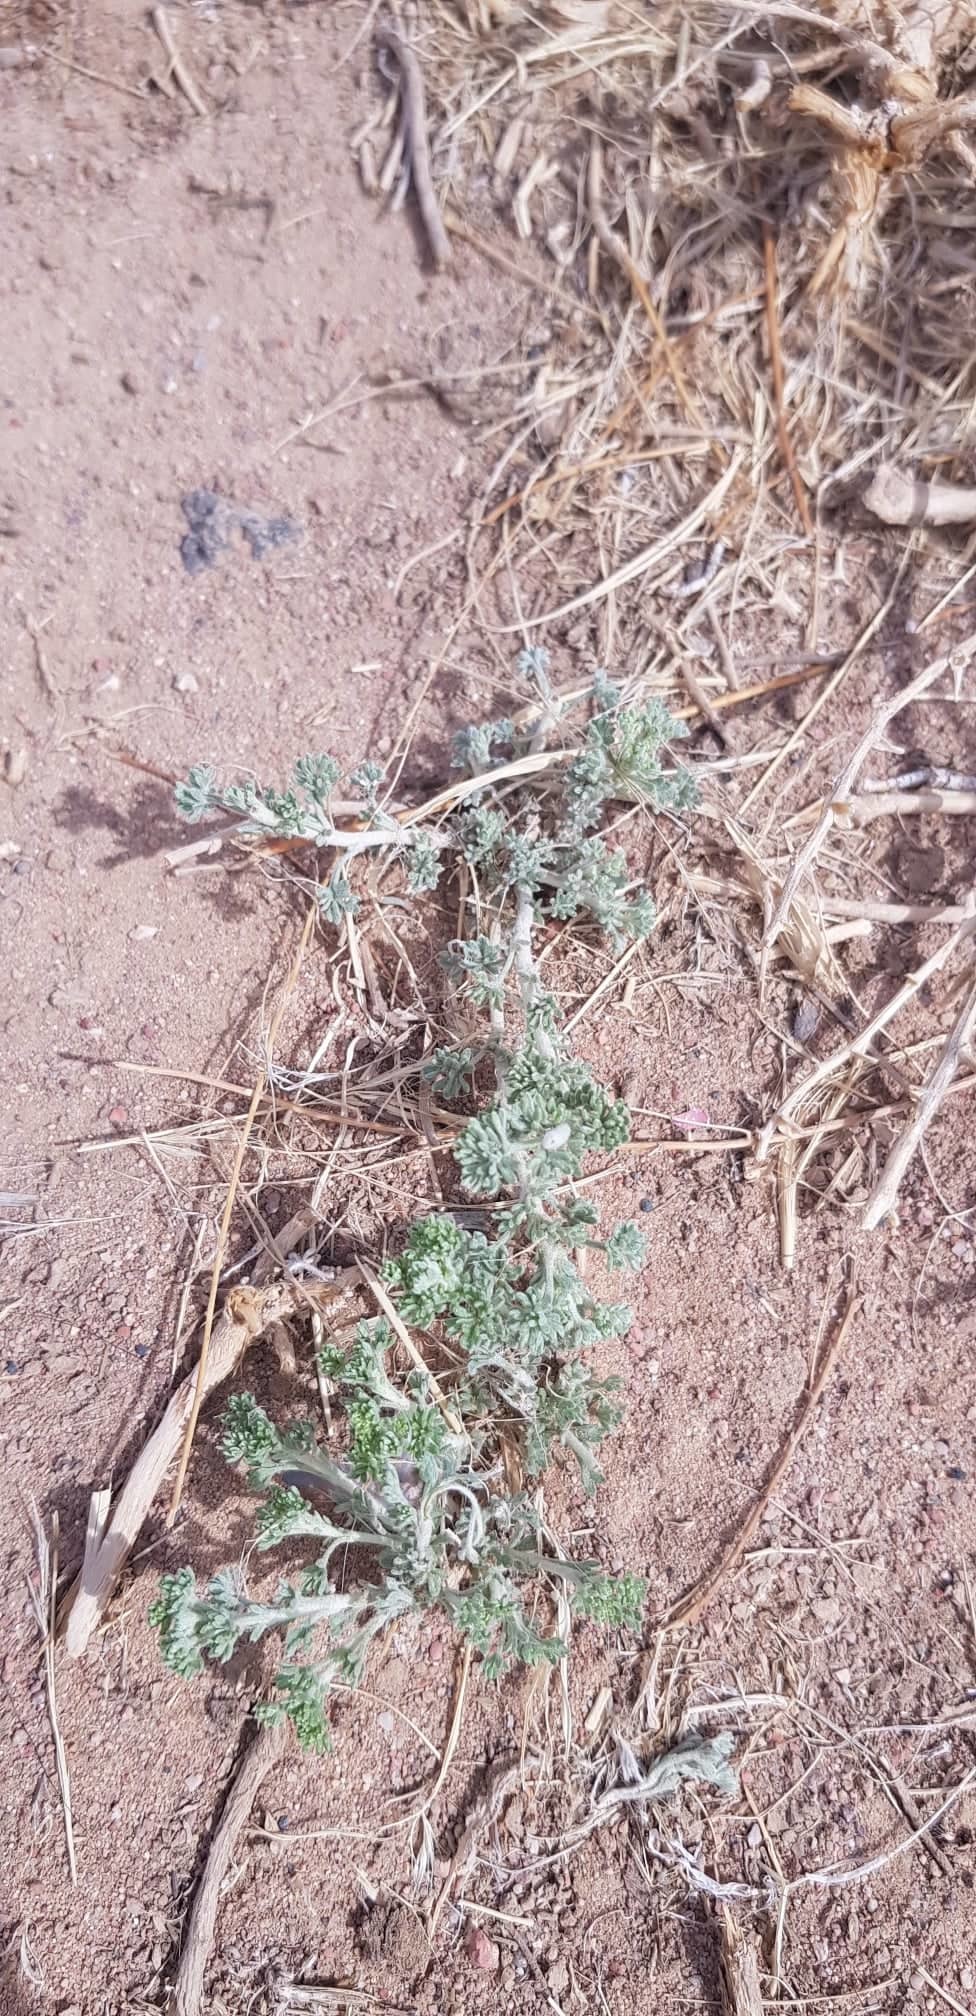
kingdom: Plantae
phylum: Tracheophyta
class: Magnoliopsida
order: Asterales
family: Asteraceae
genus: Artemisia
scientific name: Artemisia frigida
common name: Prairie sagewort
